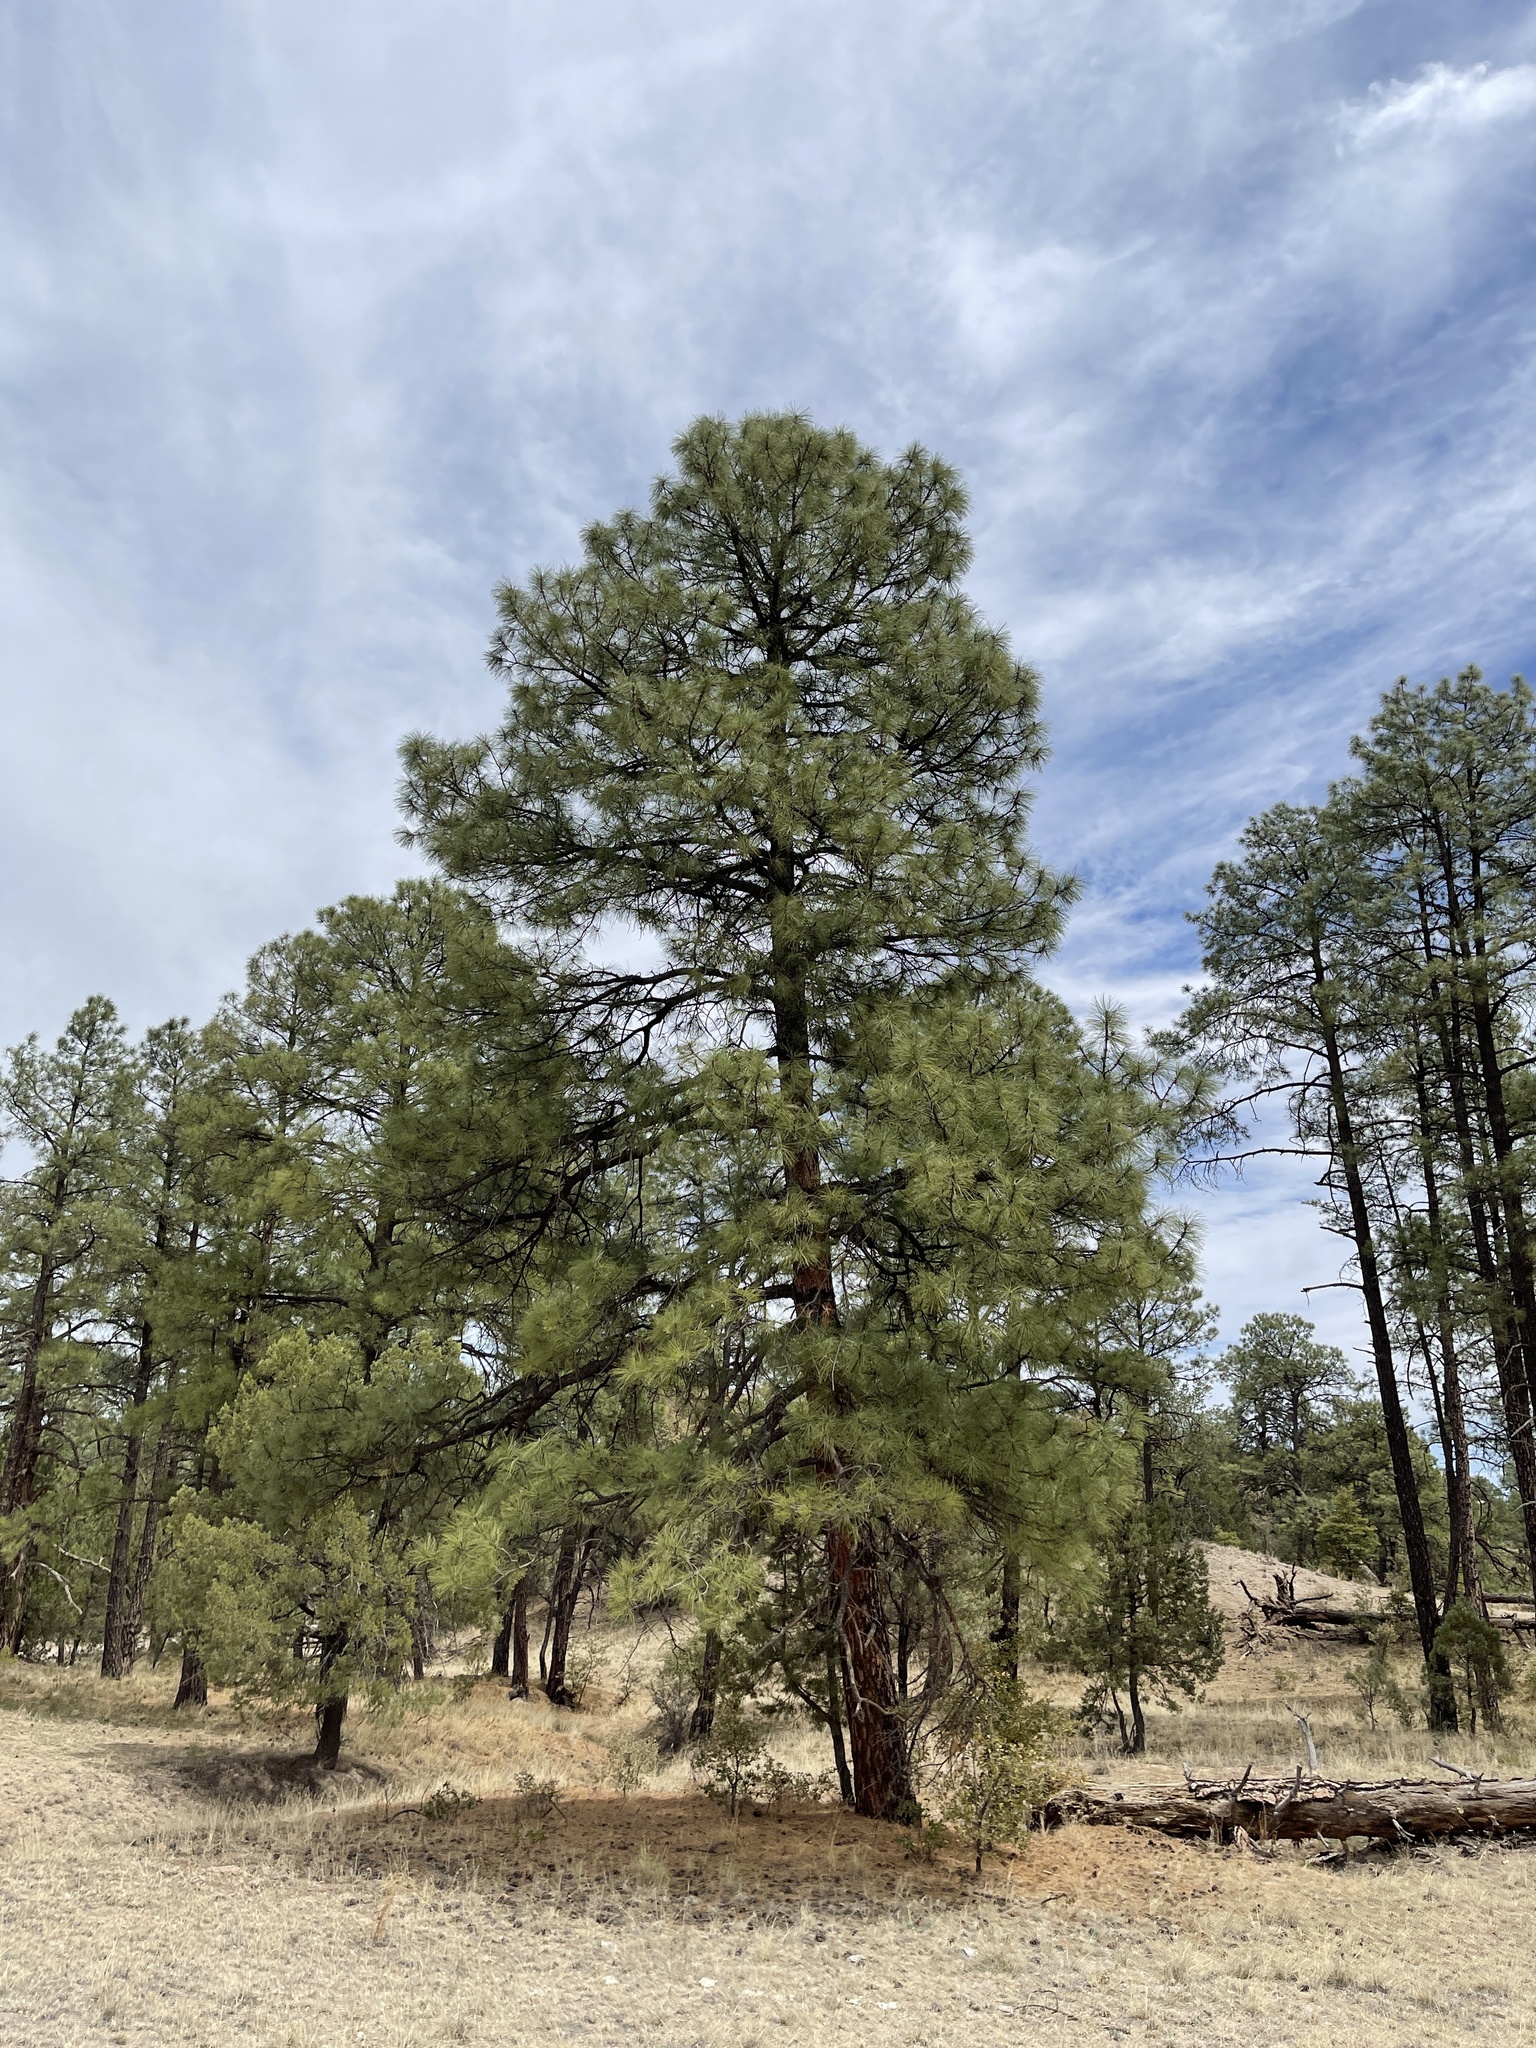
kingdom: Plantae
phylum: Tracheophyta
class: Pinopsida
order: Pinales
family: Pinaceae
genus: Pinus
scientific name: Pinus ponderosa
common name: Western yellow-pine
